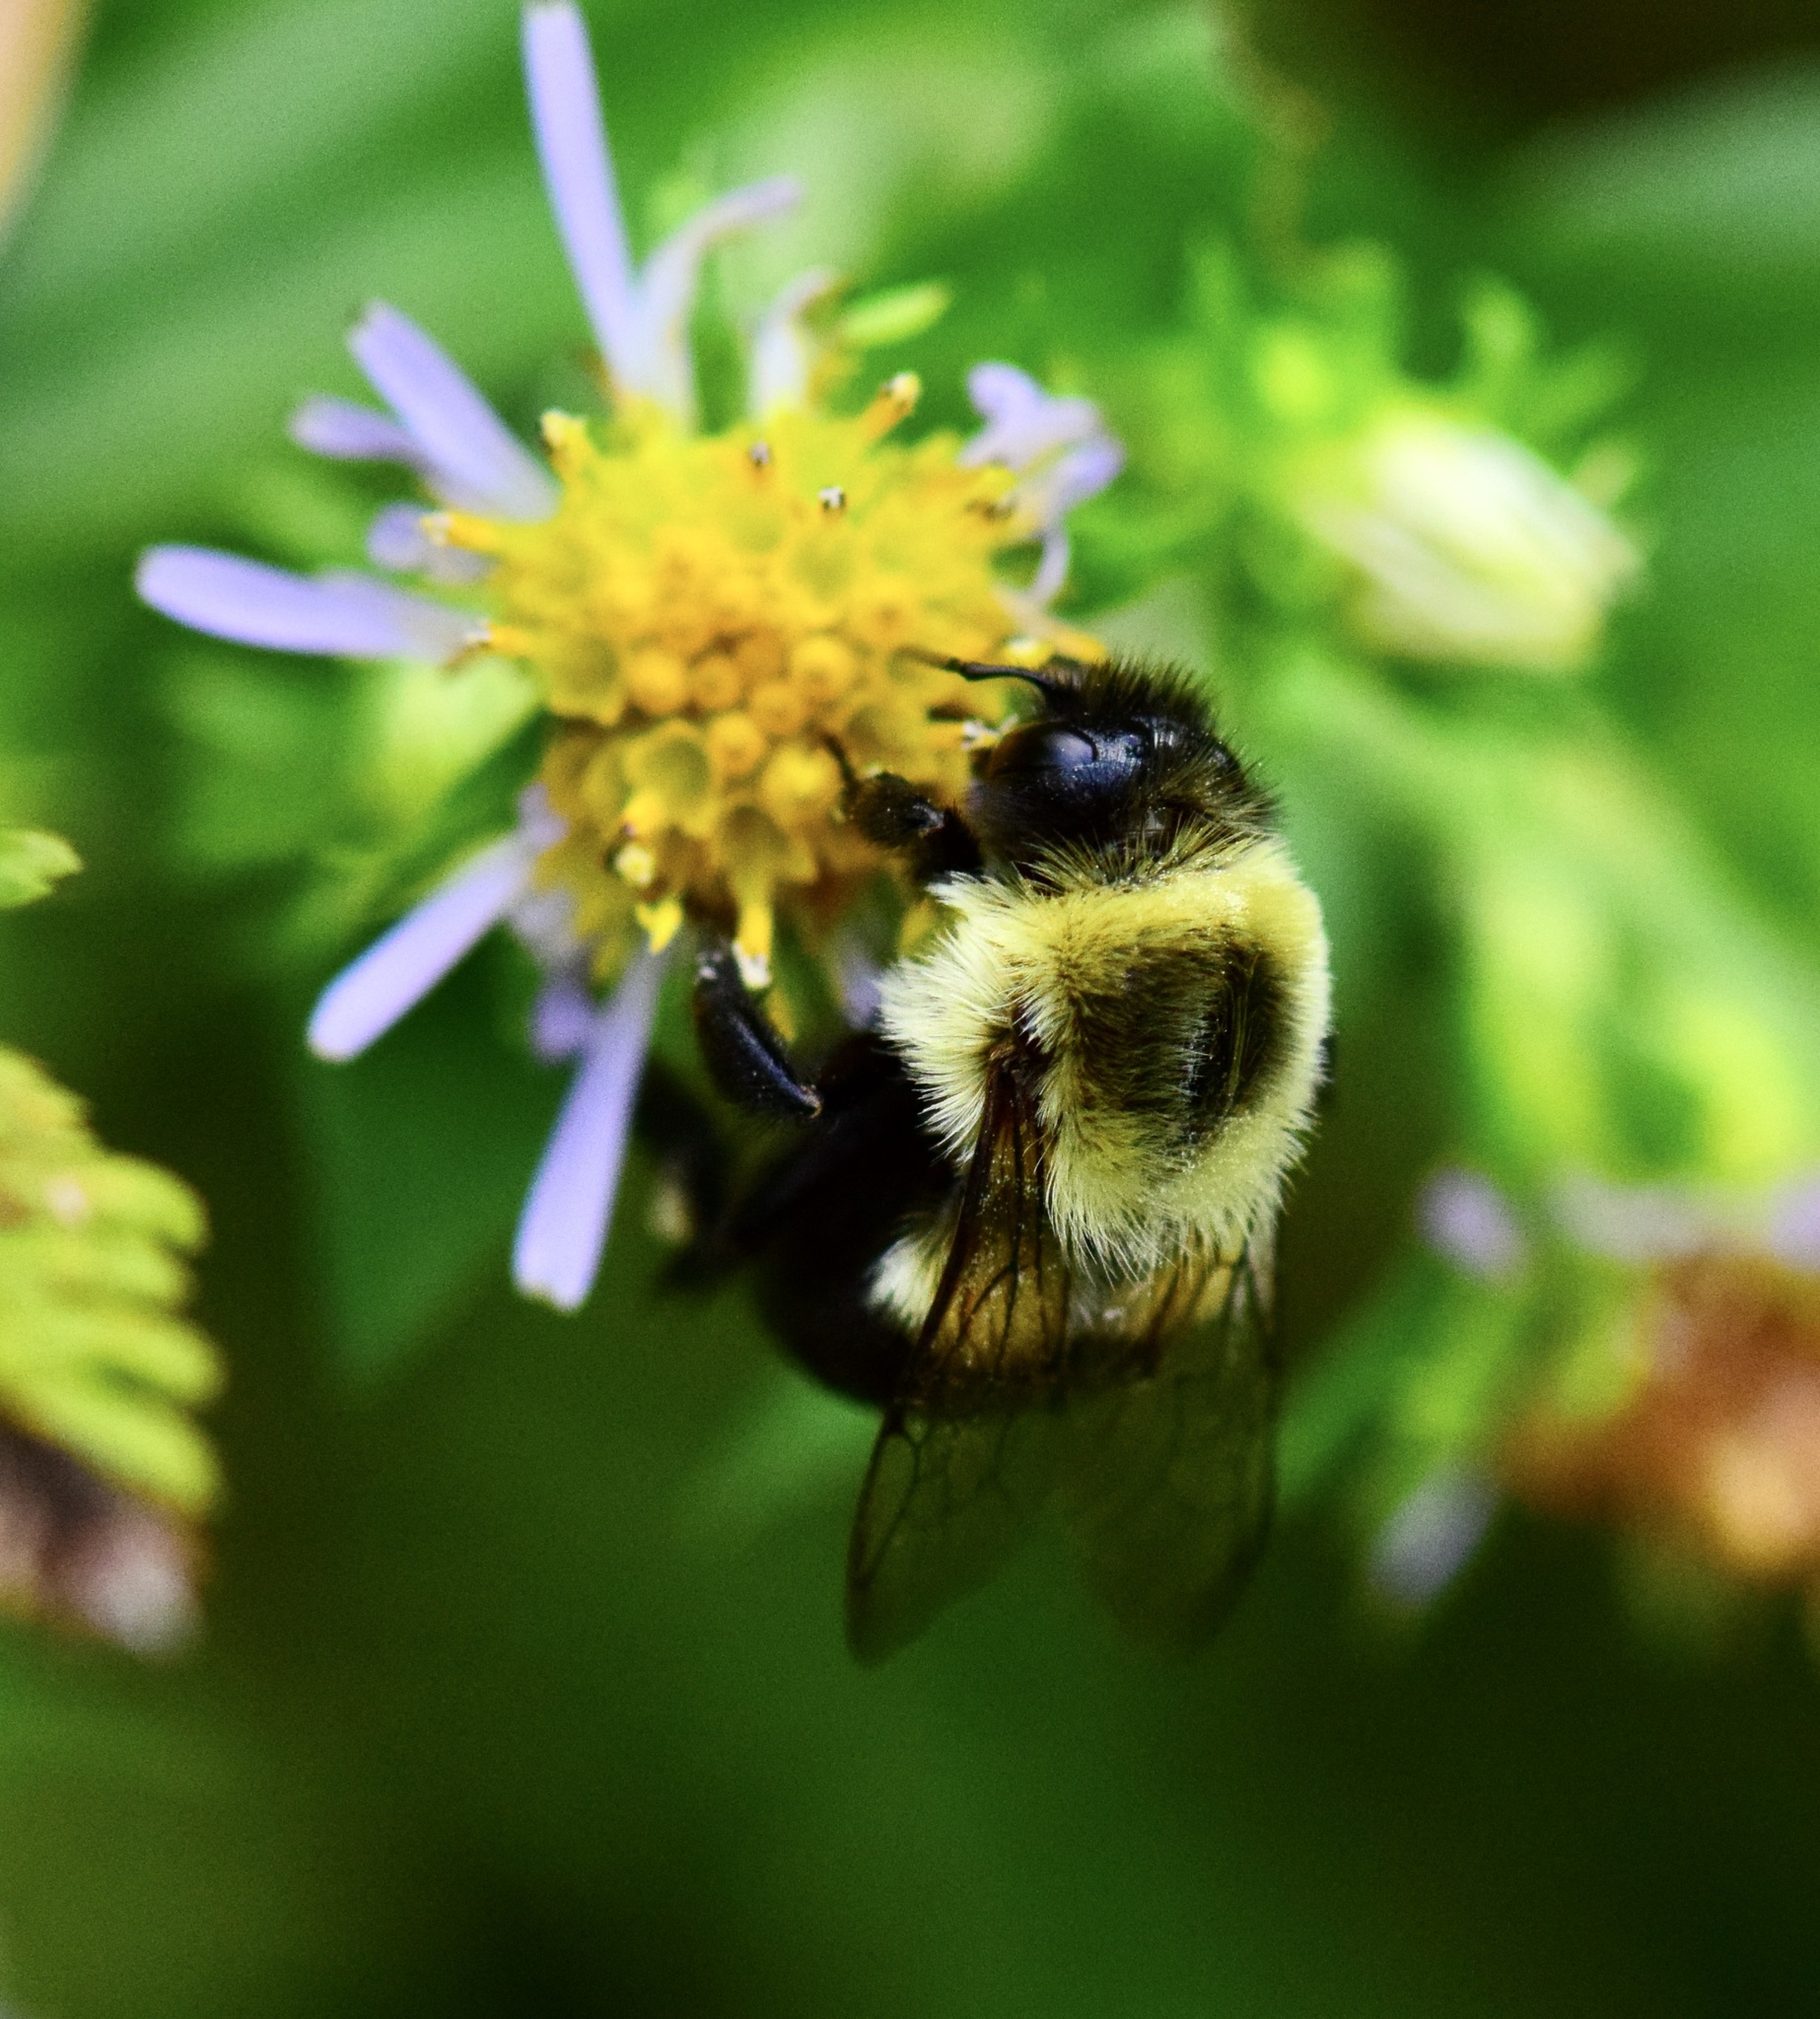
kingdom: Animalia
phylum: Arthropoda
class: Insecta
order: Hymenoptera
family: Apidae
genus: Bombus
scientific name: Bombus impatiens
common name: Common eastern bumble bee
